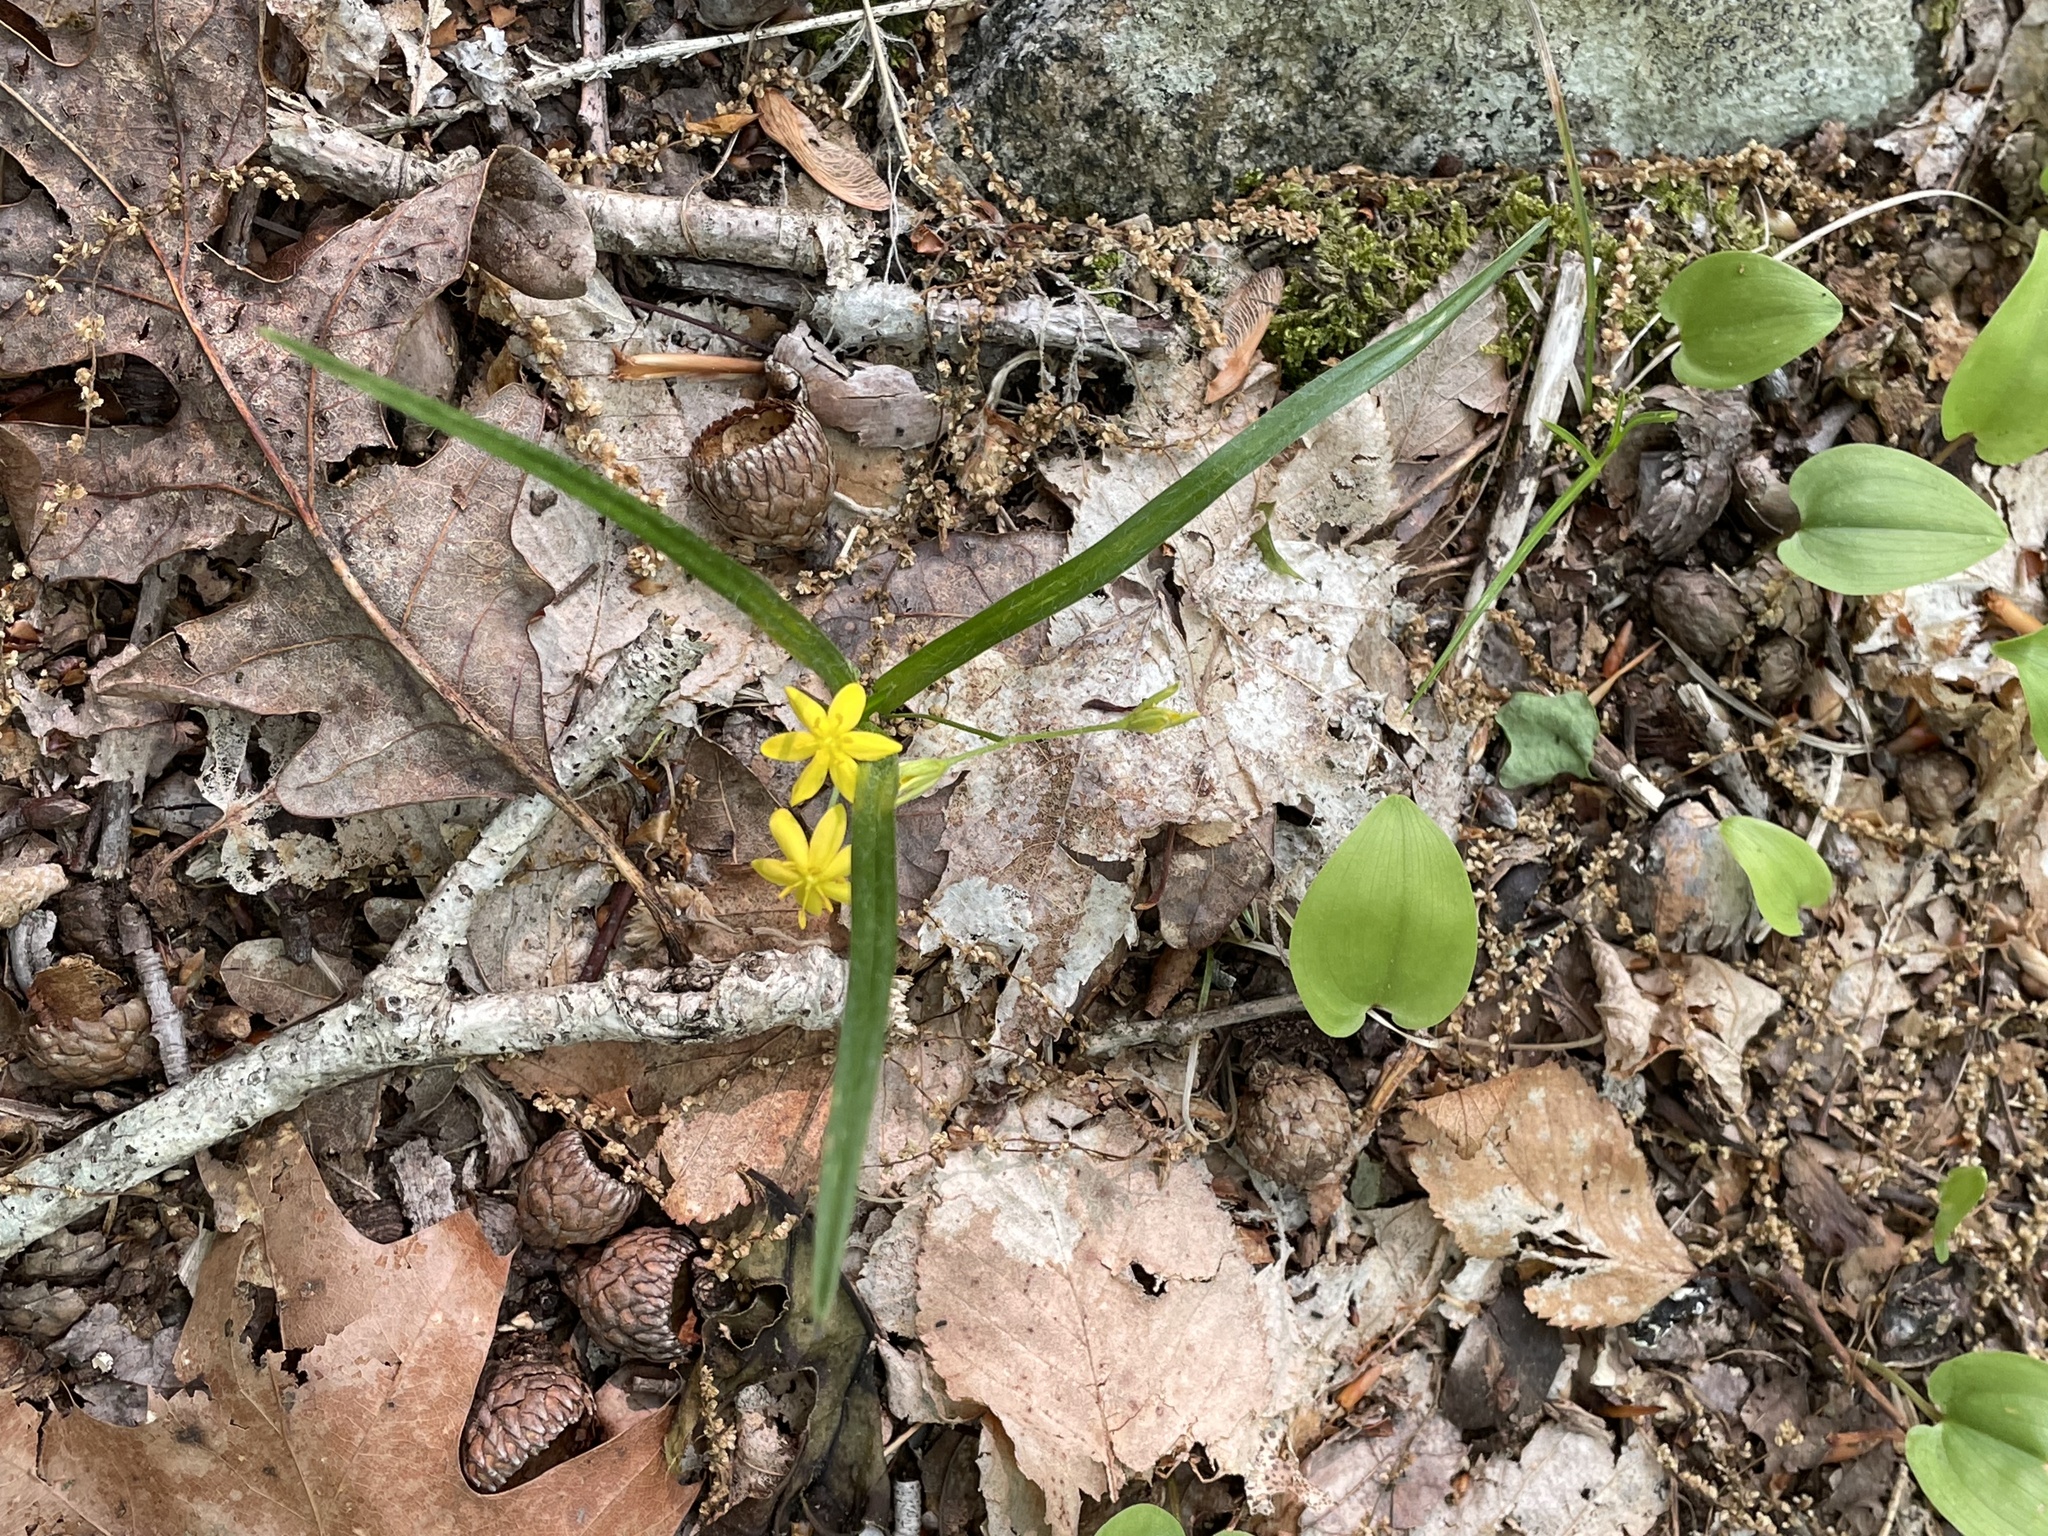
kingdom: Plantae
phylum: Tracheophyta
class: Liliopsida
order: Asparagales
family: Hypoxidaceae
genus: Hypoxis
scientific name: Hypoxis hirsuta
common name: Common goldstar
